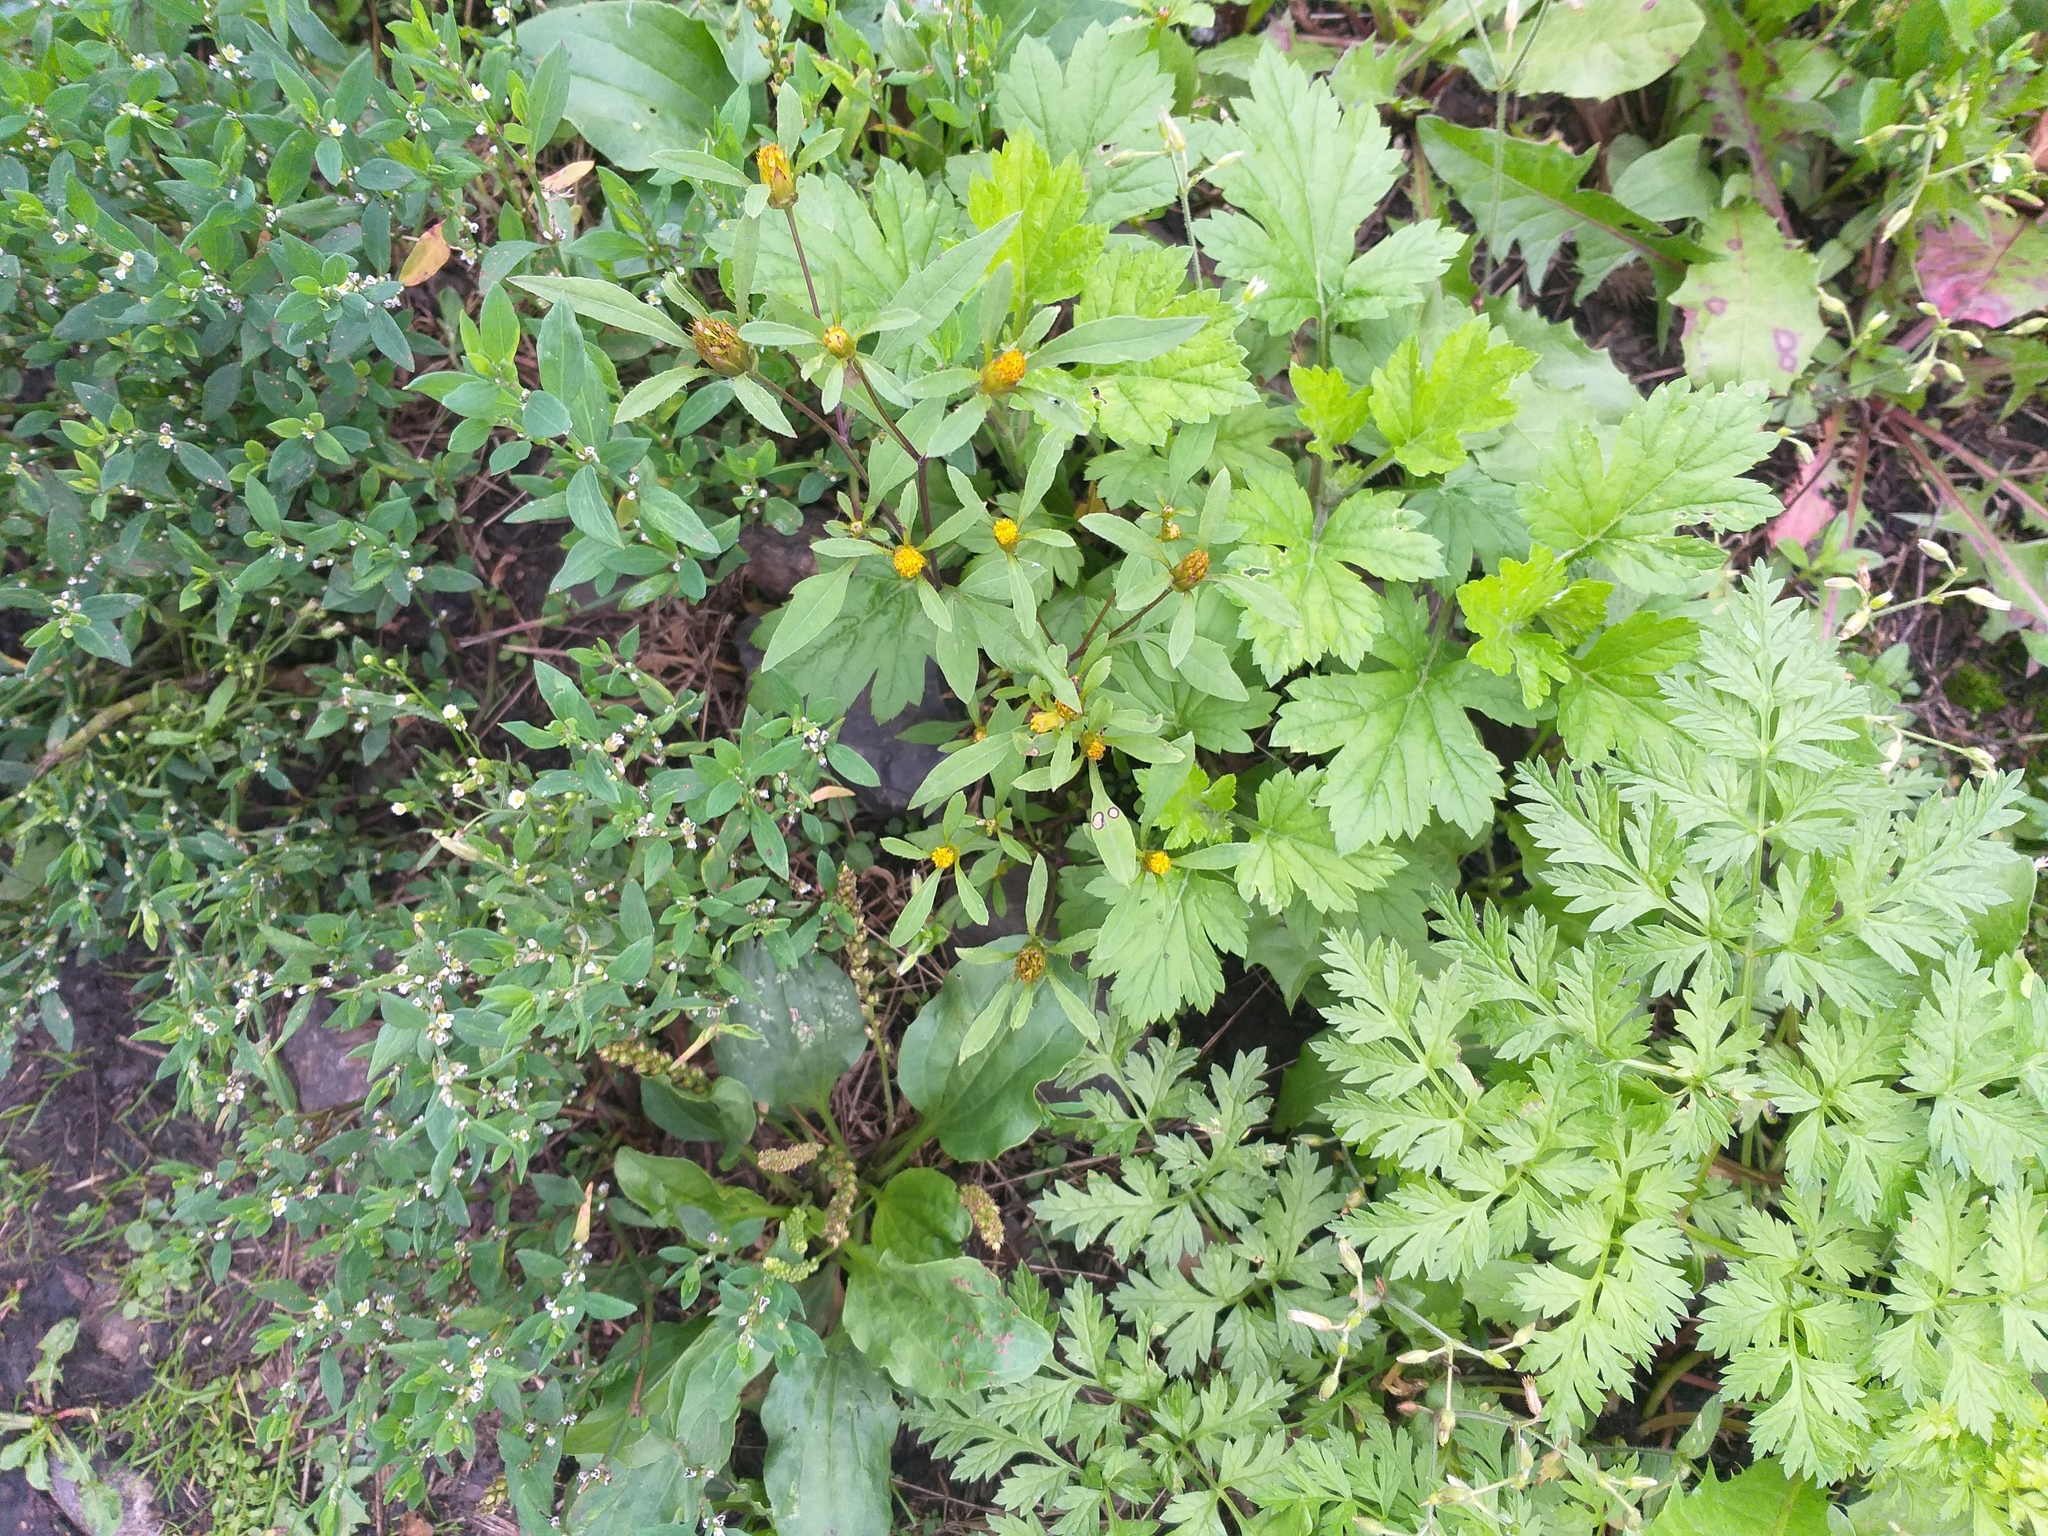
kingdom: Plantae
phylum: Tracheophyta
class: Magnoliopsida
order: Asterales
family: Asteraceae
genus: Bidens
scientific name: Bidens frondosa
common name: Beggarticks
